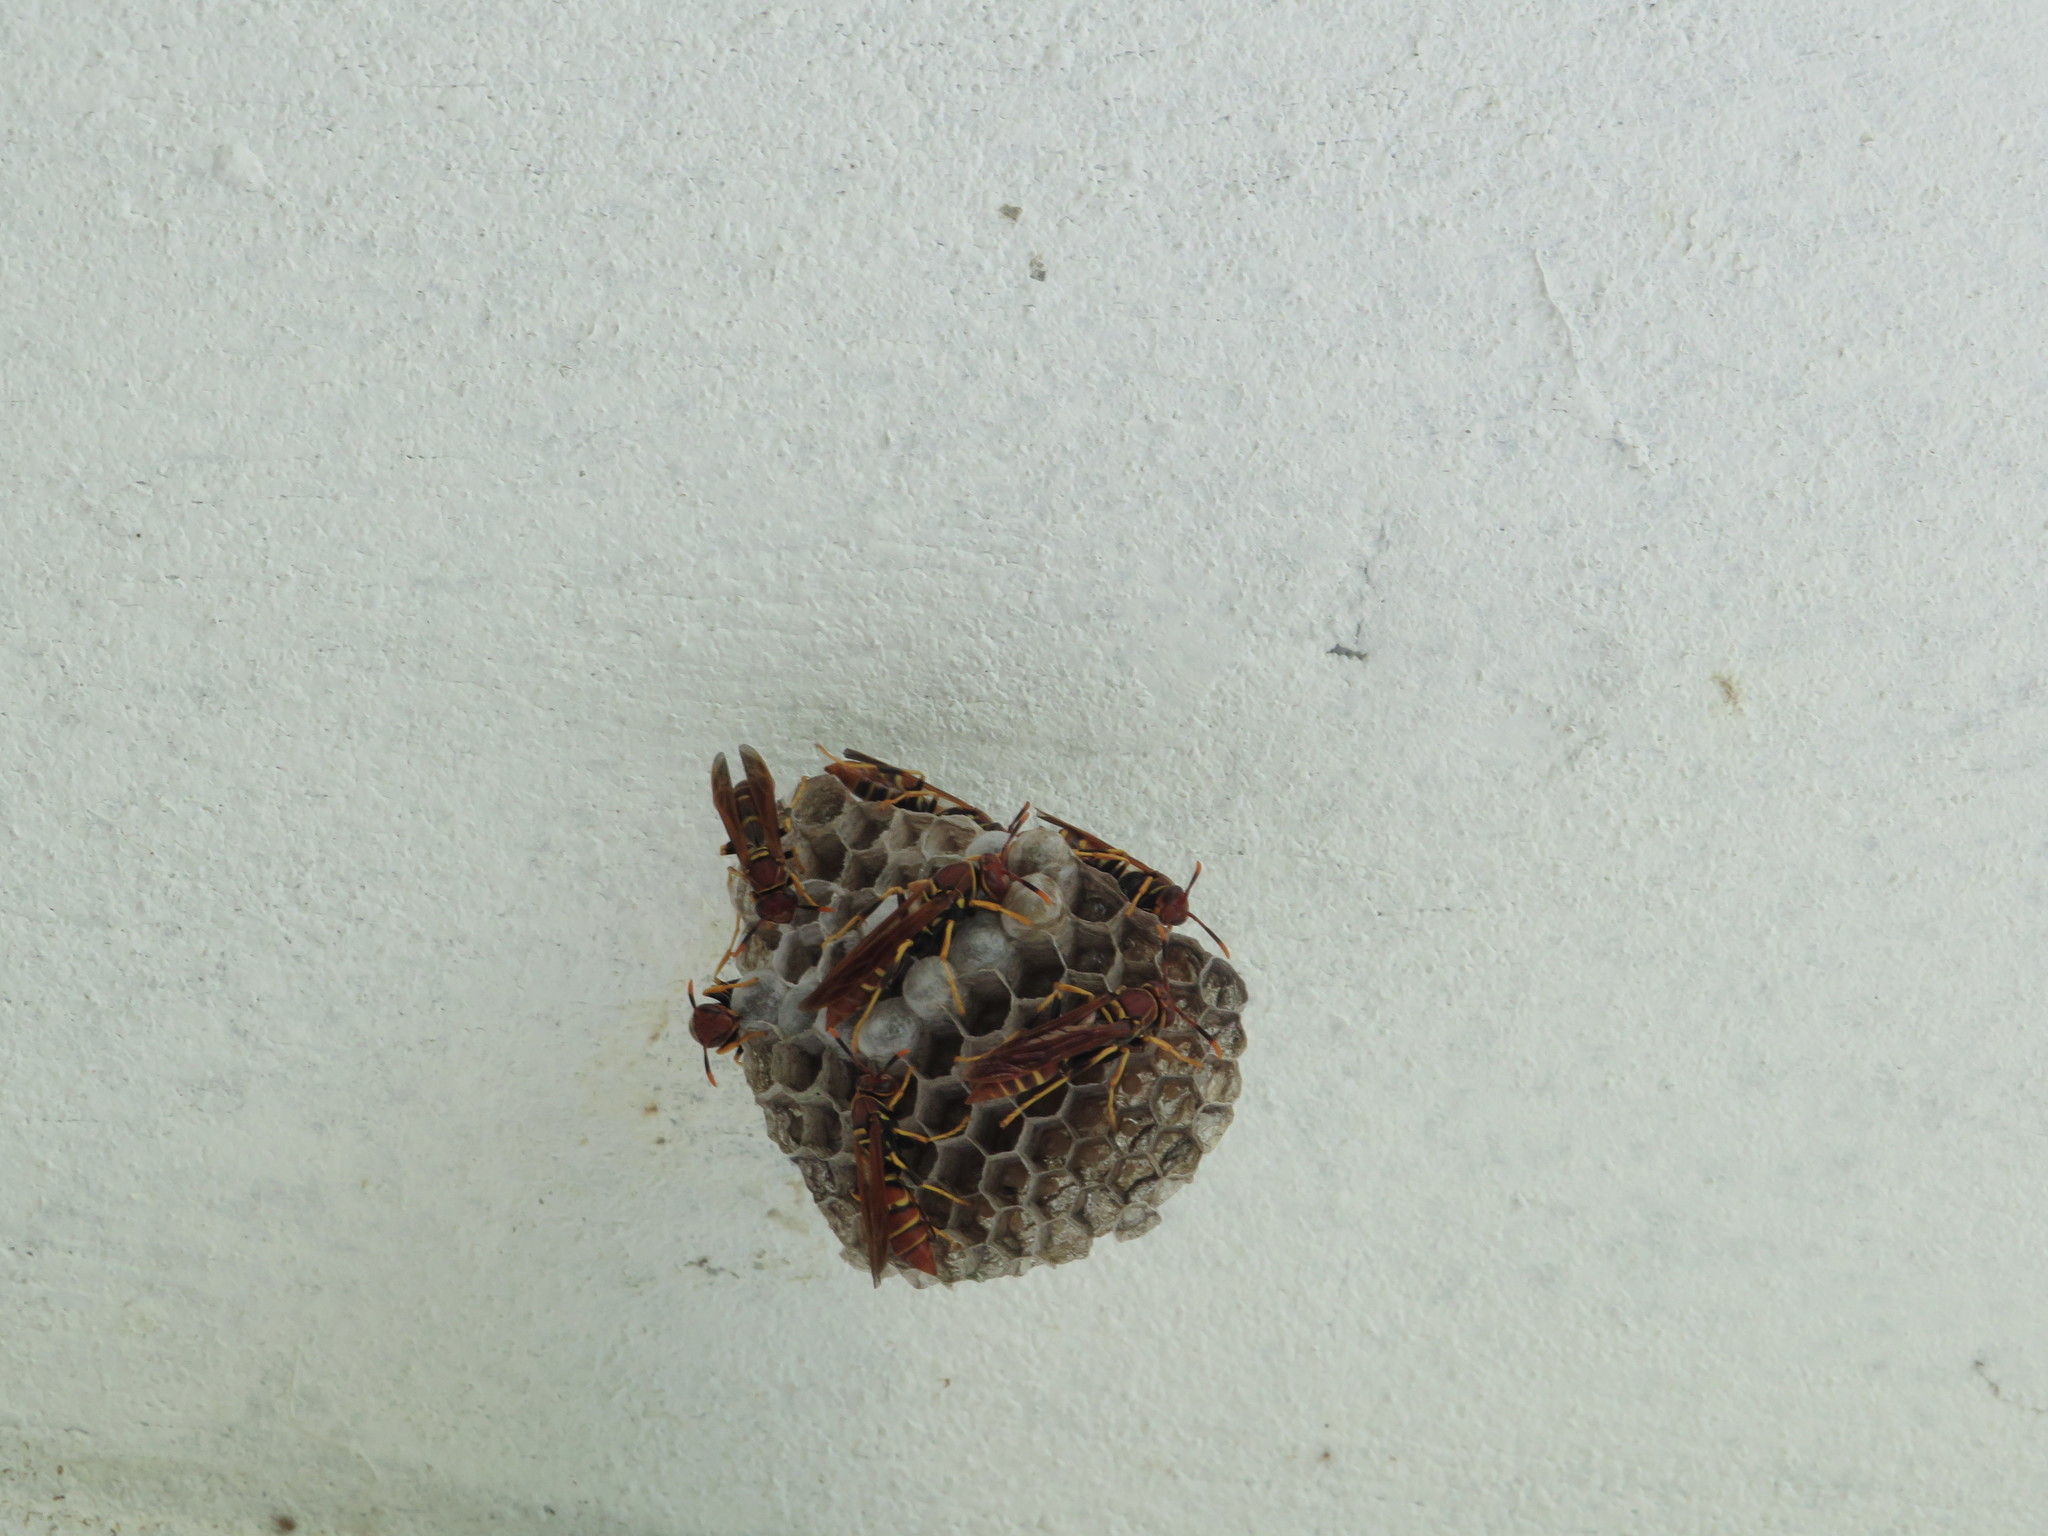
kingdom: Animalia
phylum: Arthropoda
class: Insecta
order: Hymenoptera
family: Eumenidae
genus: Polistes
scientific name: Polistes crinitus
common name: Jack spaniard
